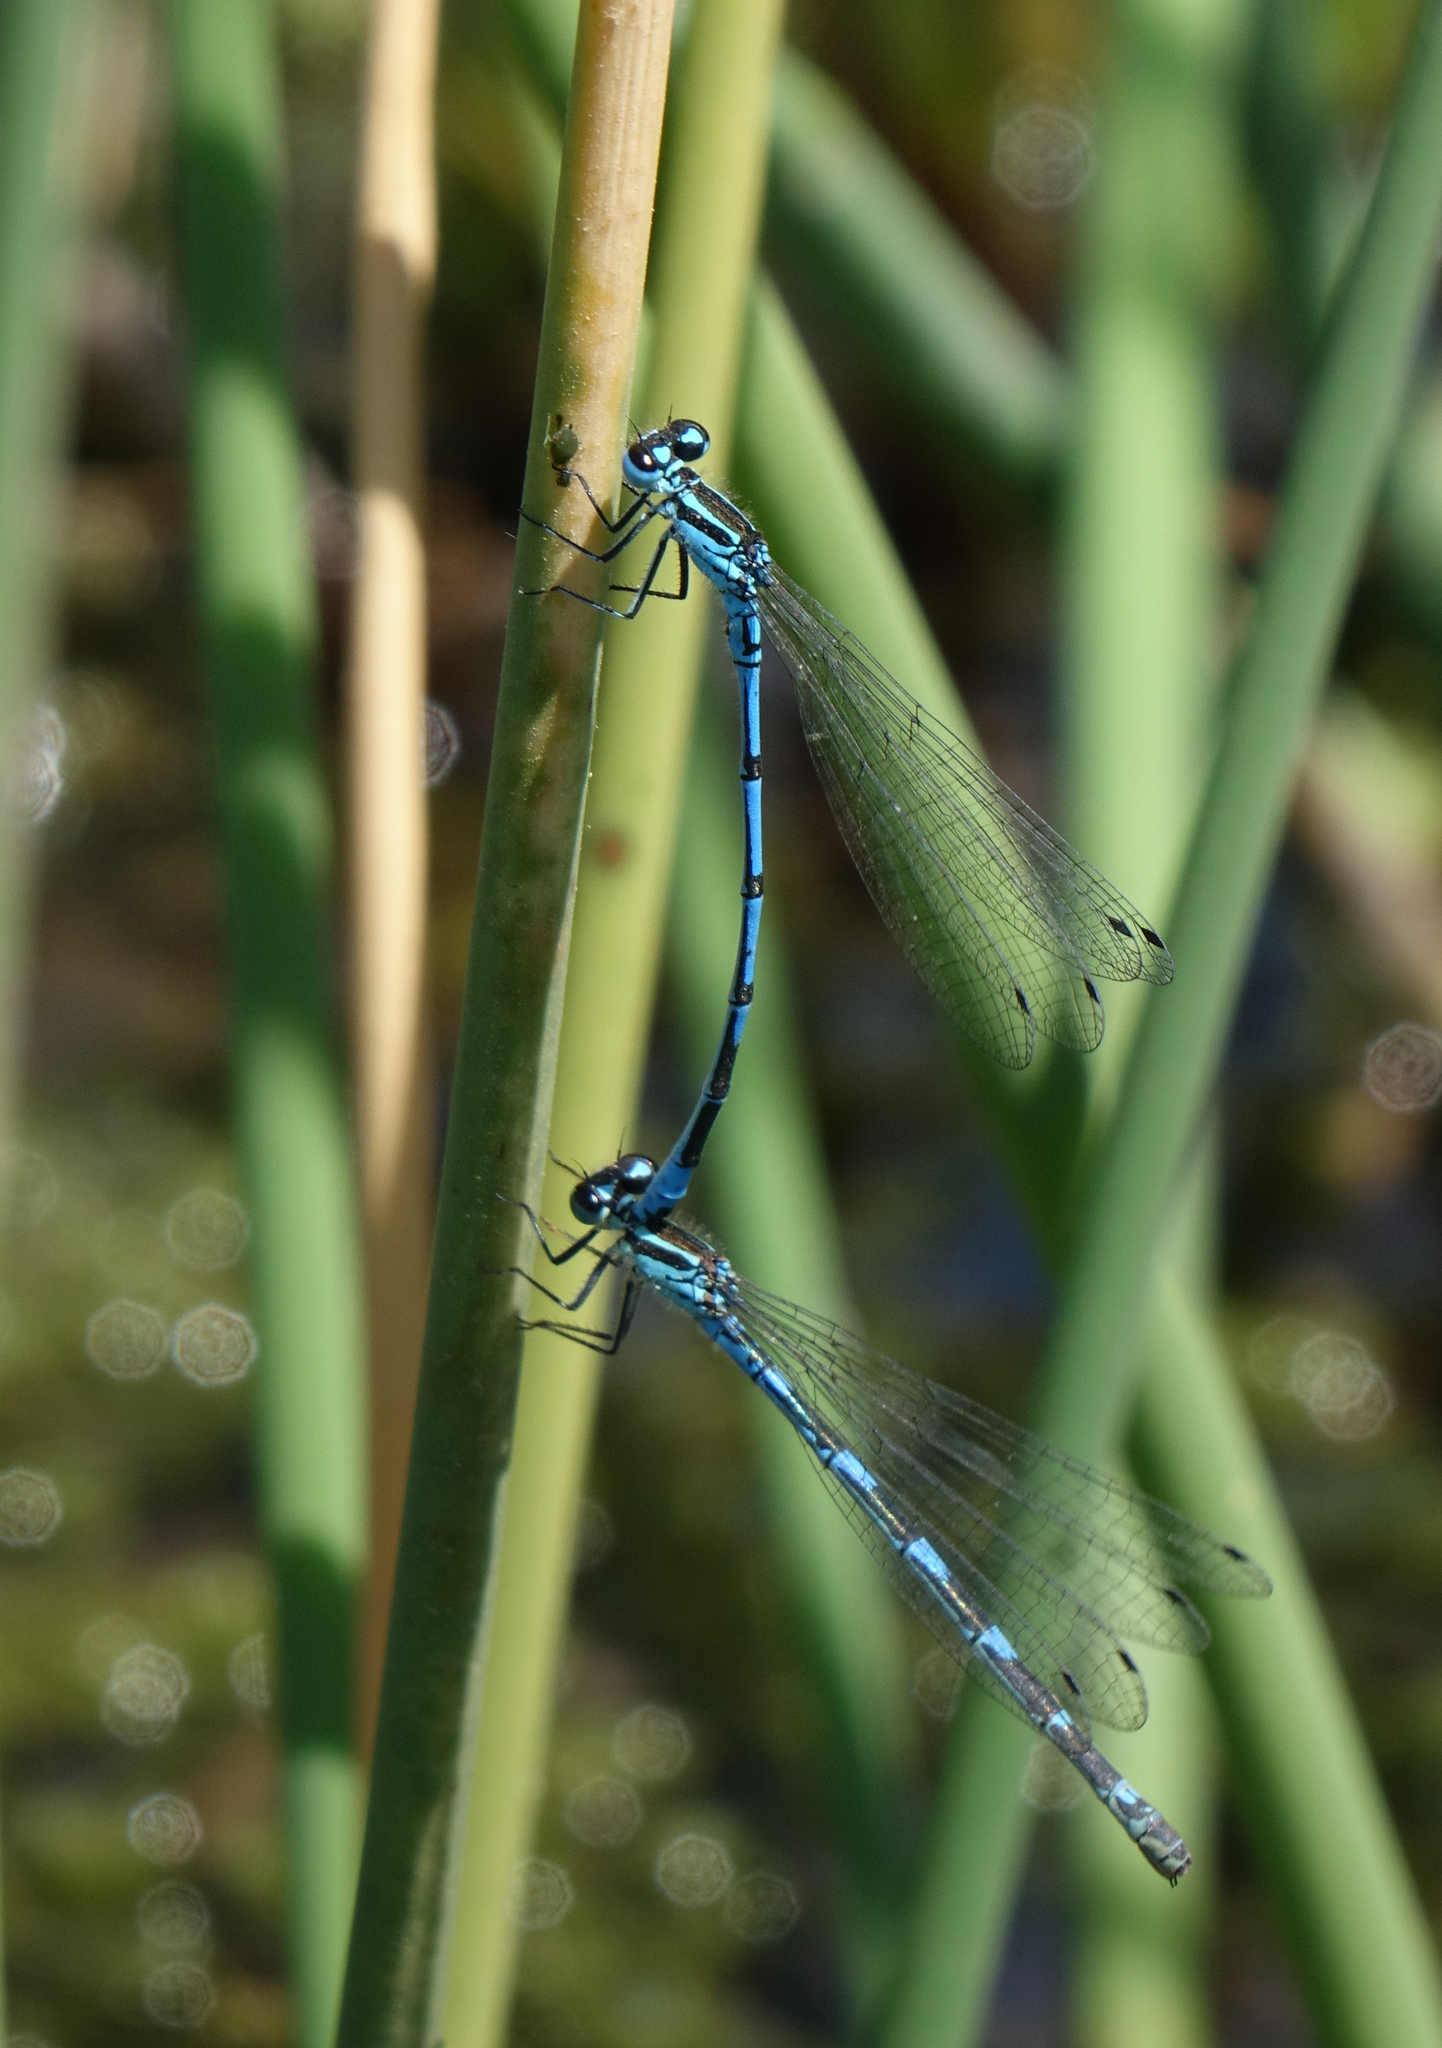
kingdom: Animalia
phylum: Arthropoda
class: Insecta
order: Odonata
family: Coenagrionidae
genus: Coenagrion
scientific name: Coenagrion puella
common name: Azure damselfly
